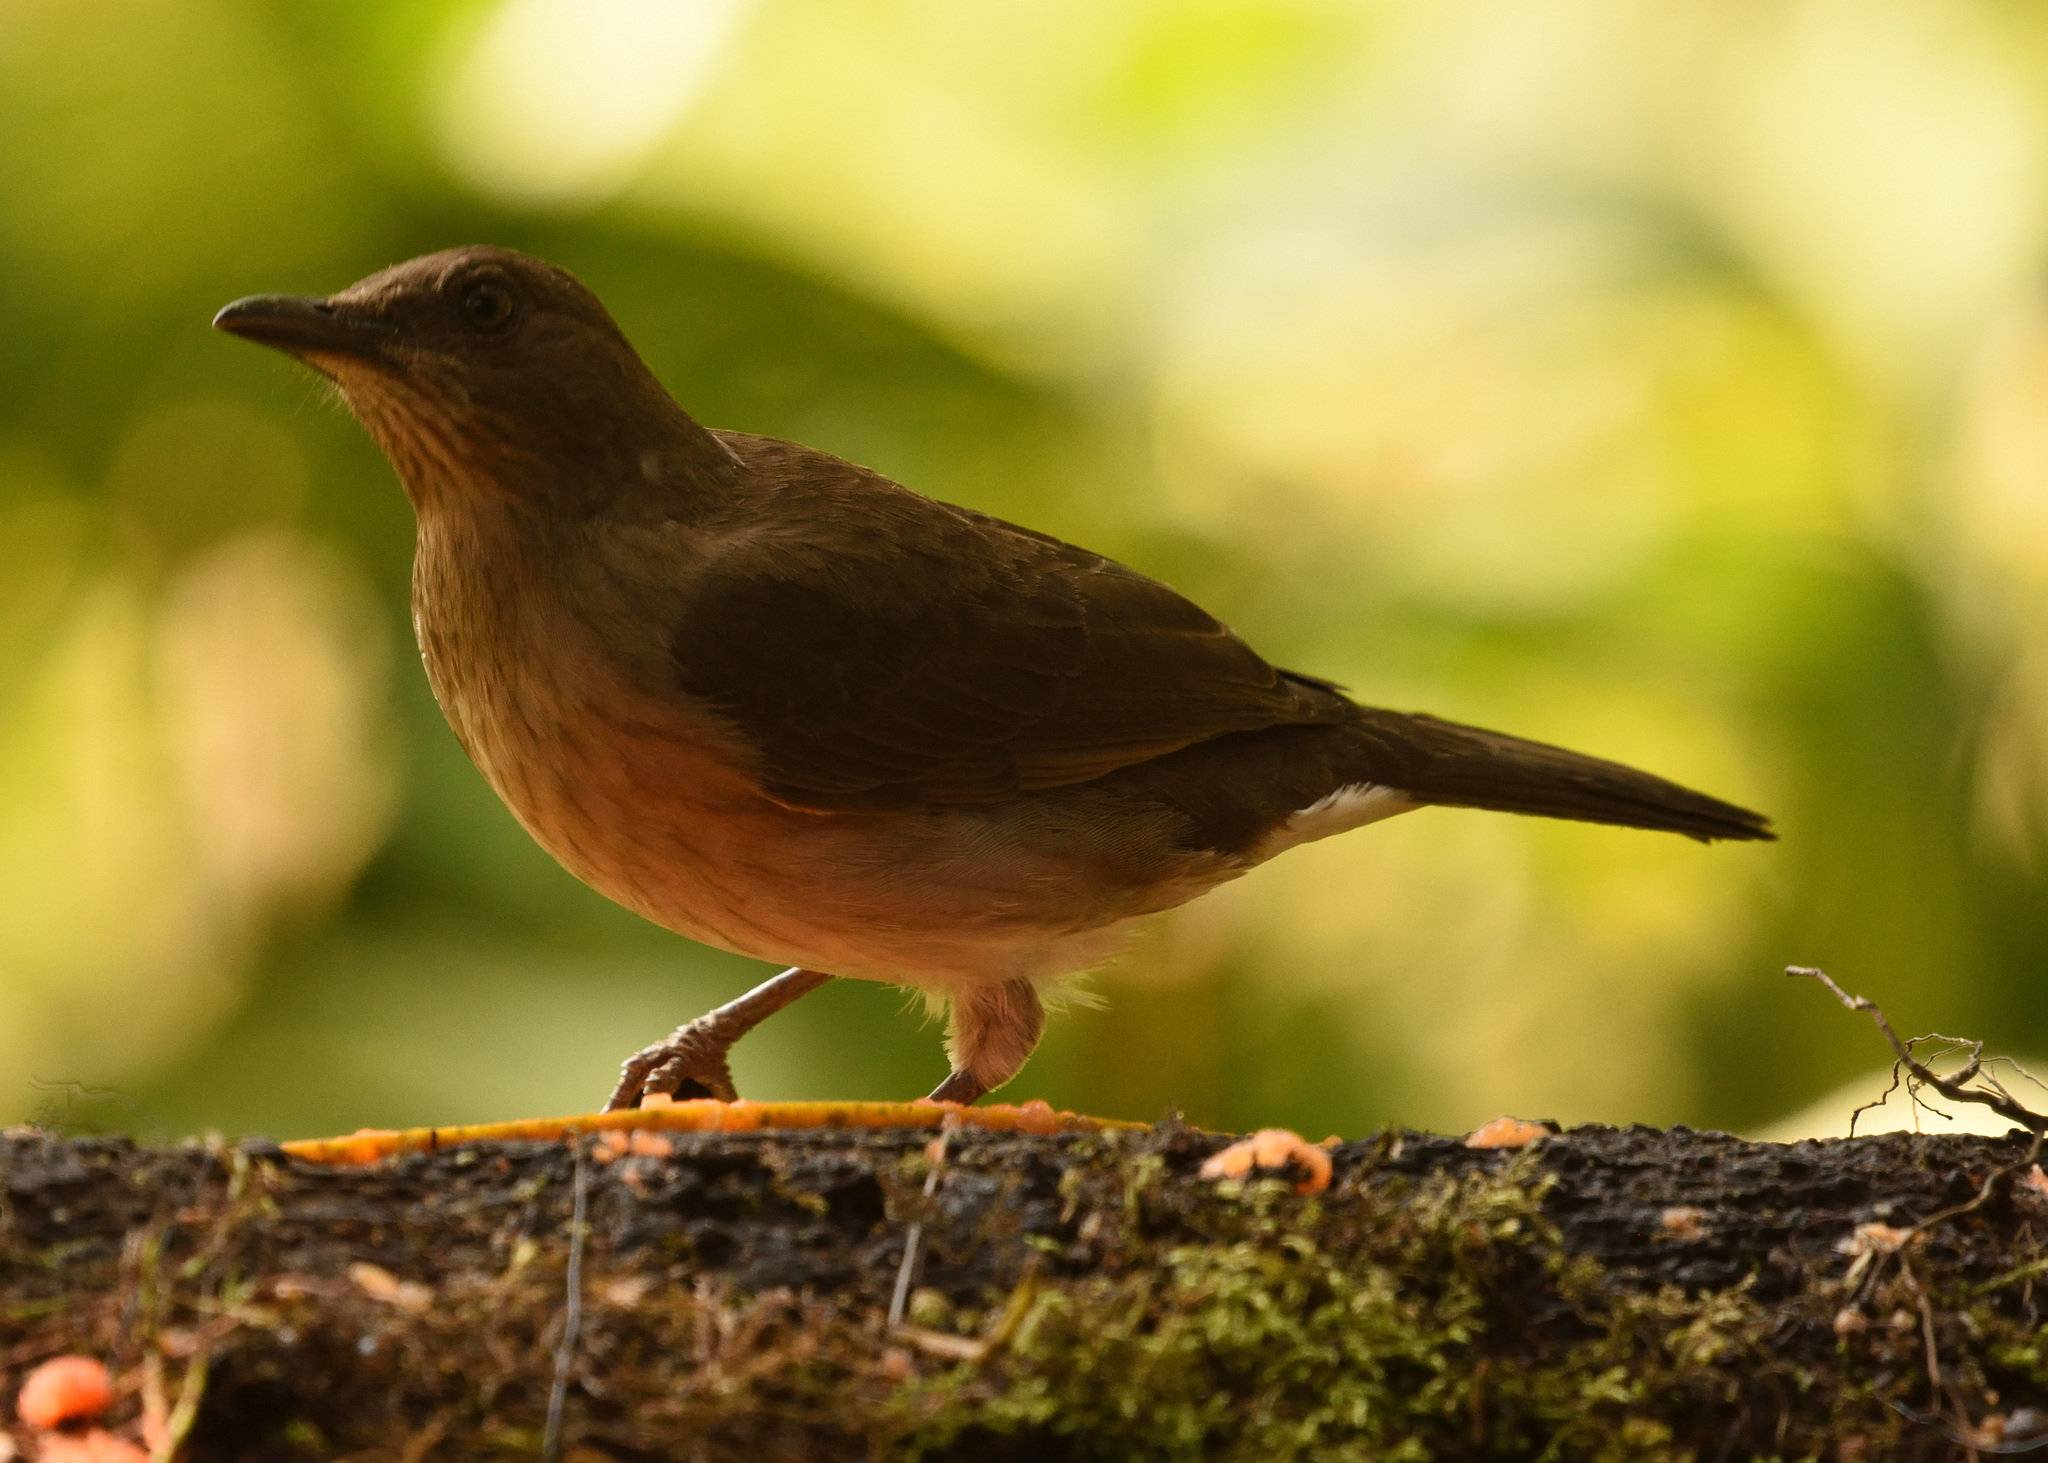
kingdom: Animalia
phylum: Chordata
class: Aves
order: Passeriformes
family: Turdidae
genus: Turdus
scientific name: Turdus ignobilis
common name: Black-billed thrush
